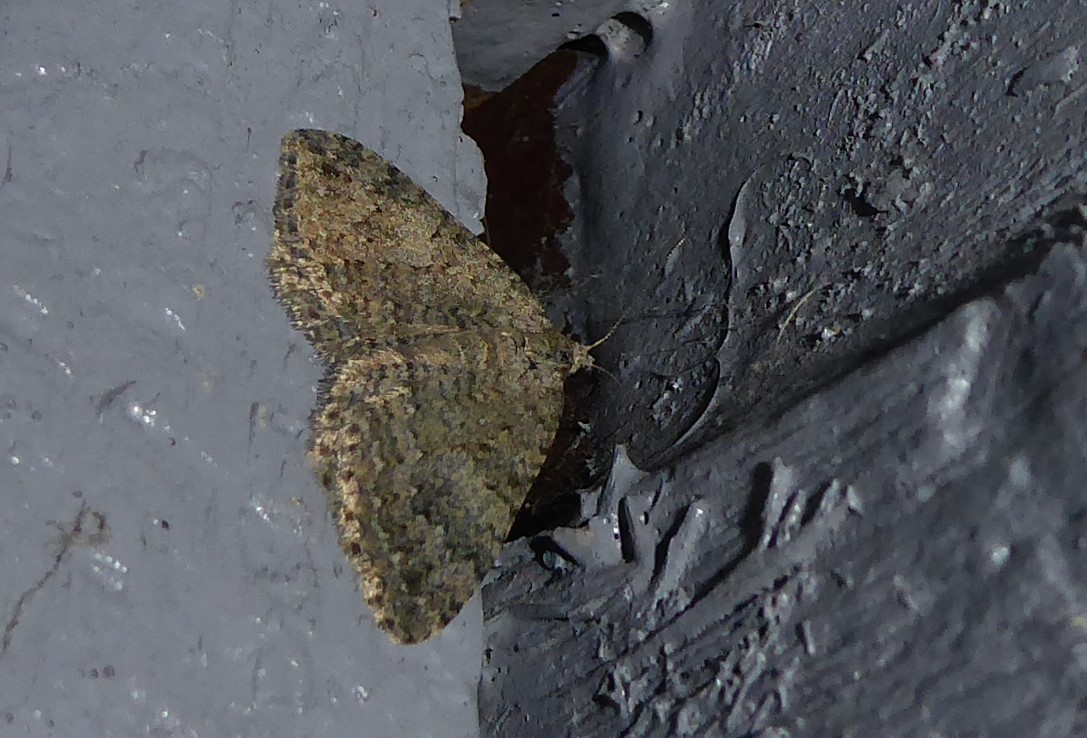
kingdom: Animalia
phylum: Arthropoda
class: Insecta
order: Lepidoptera
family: Geometridae
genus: Helastia
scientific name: Helastia corcularia
